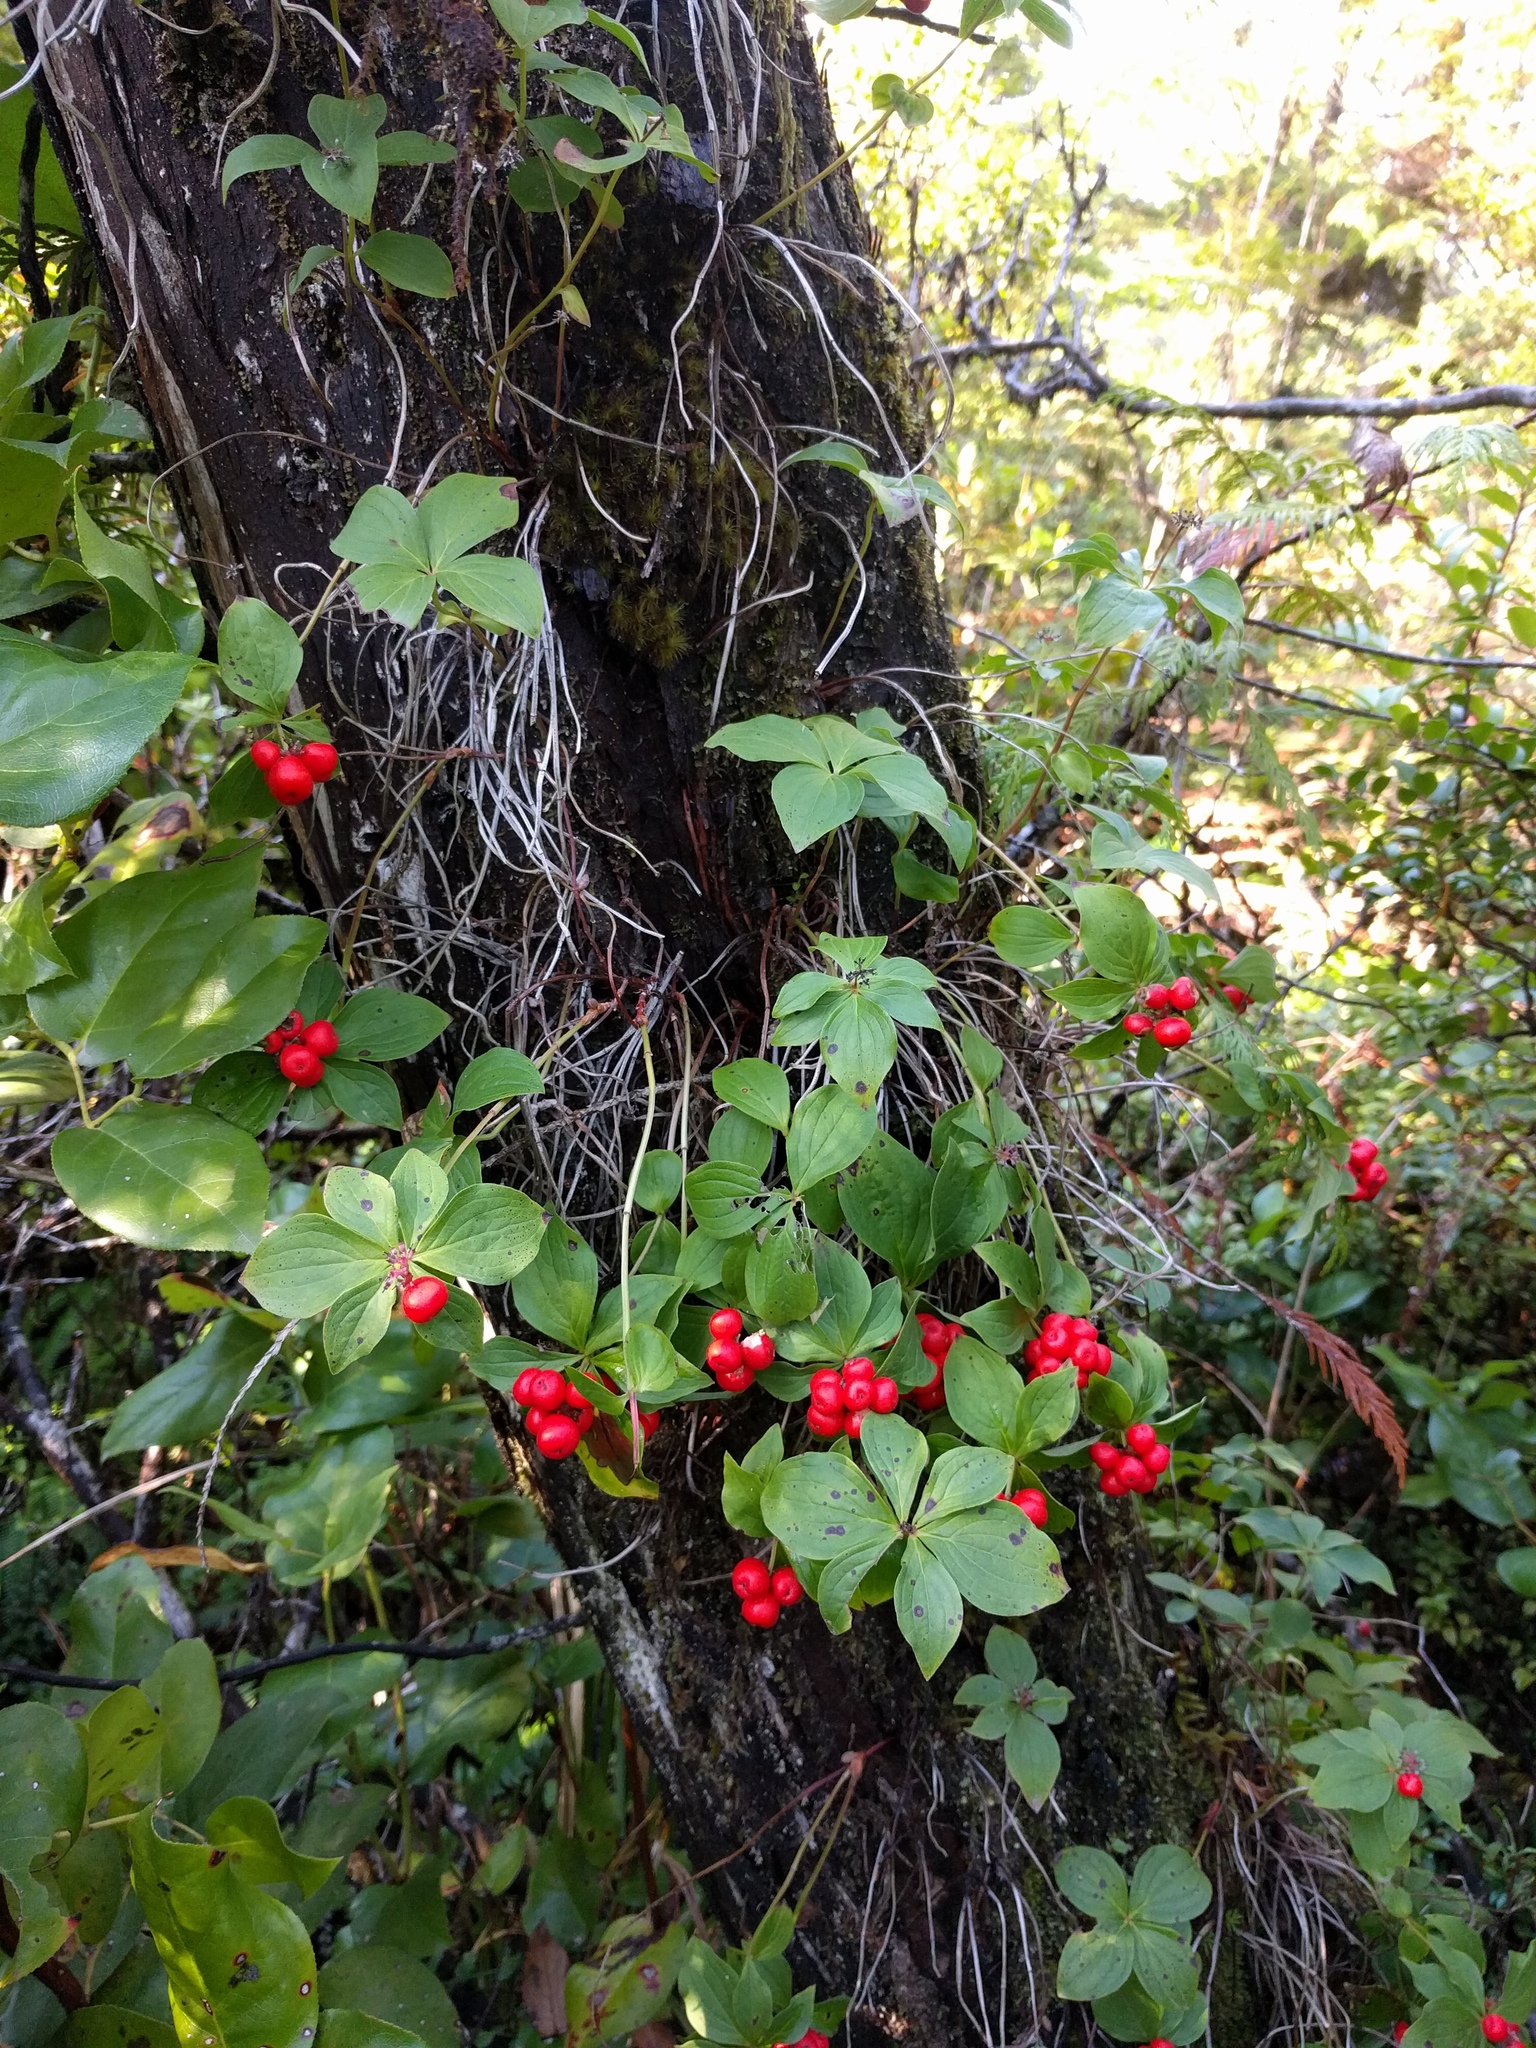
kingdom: Plantae
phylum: Tracheophyta
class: Magnoliopsida
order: Cornales
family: Cornaceae
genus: Cornus
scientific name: Cornus unalaschkensis
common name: Alaska bunchberry
